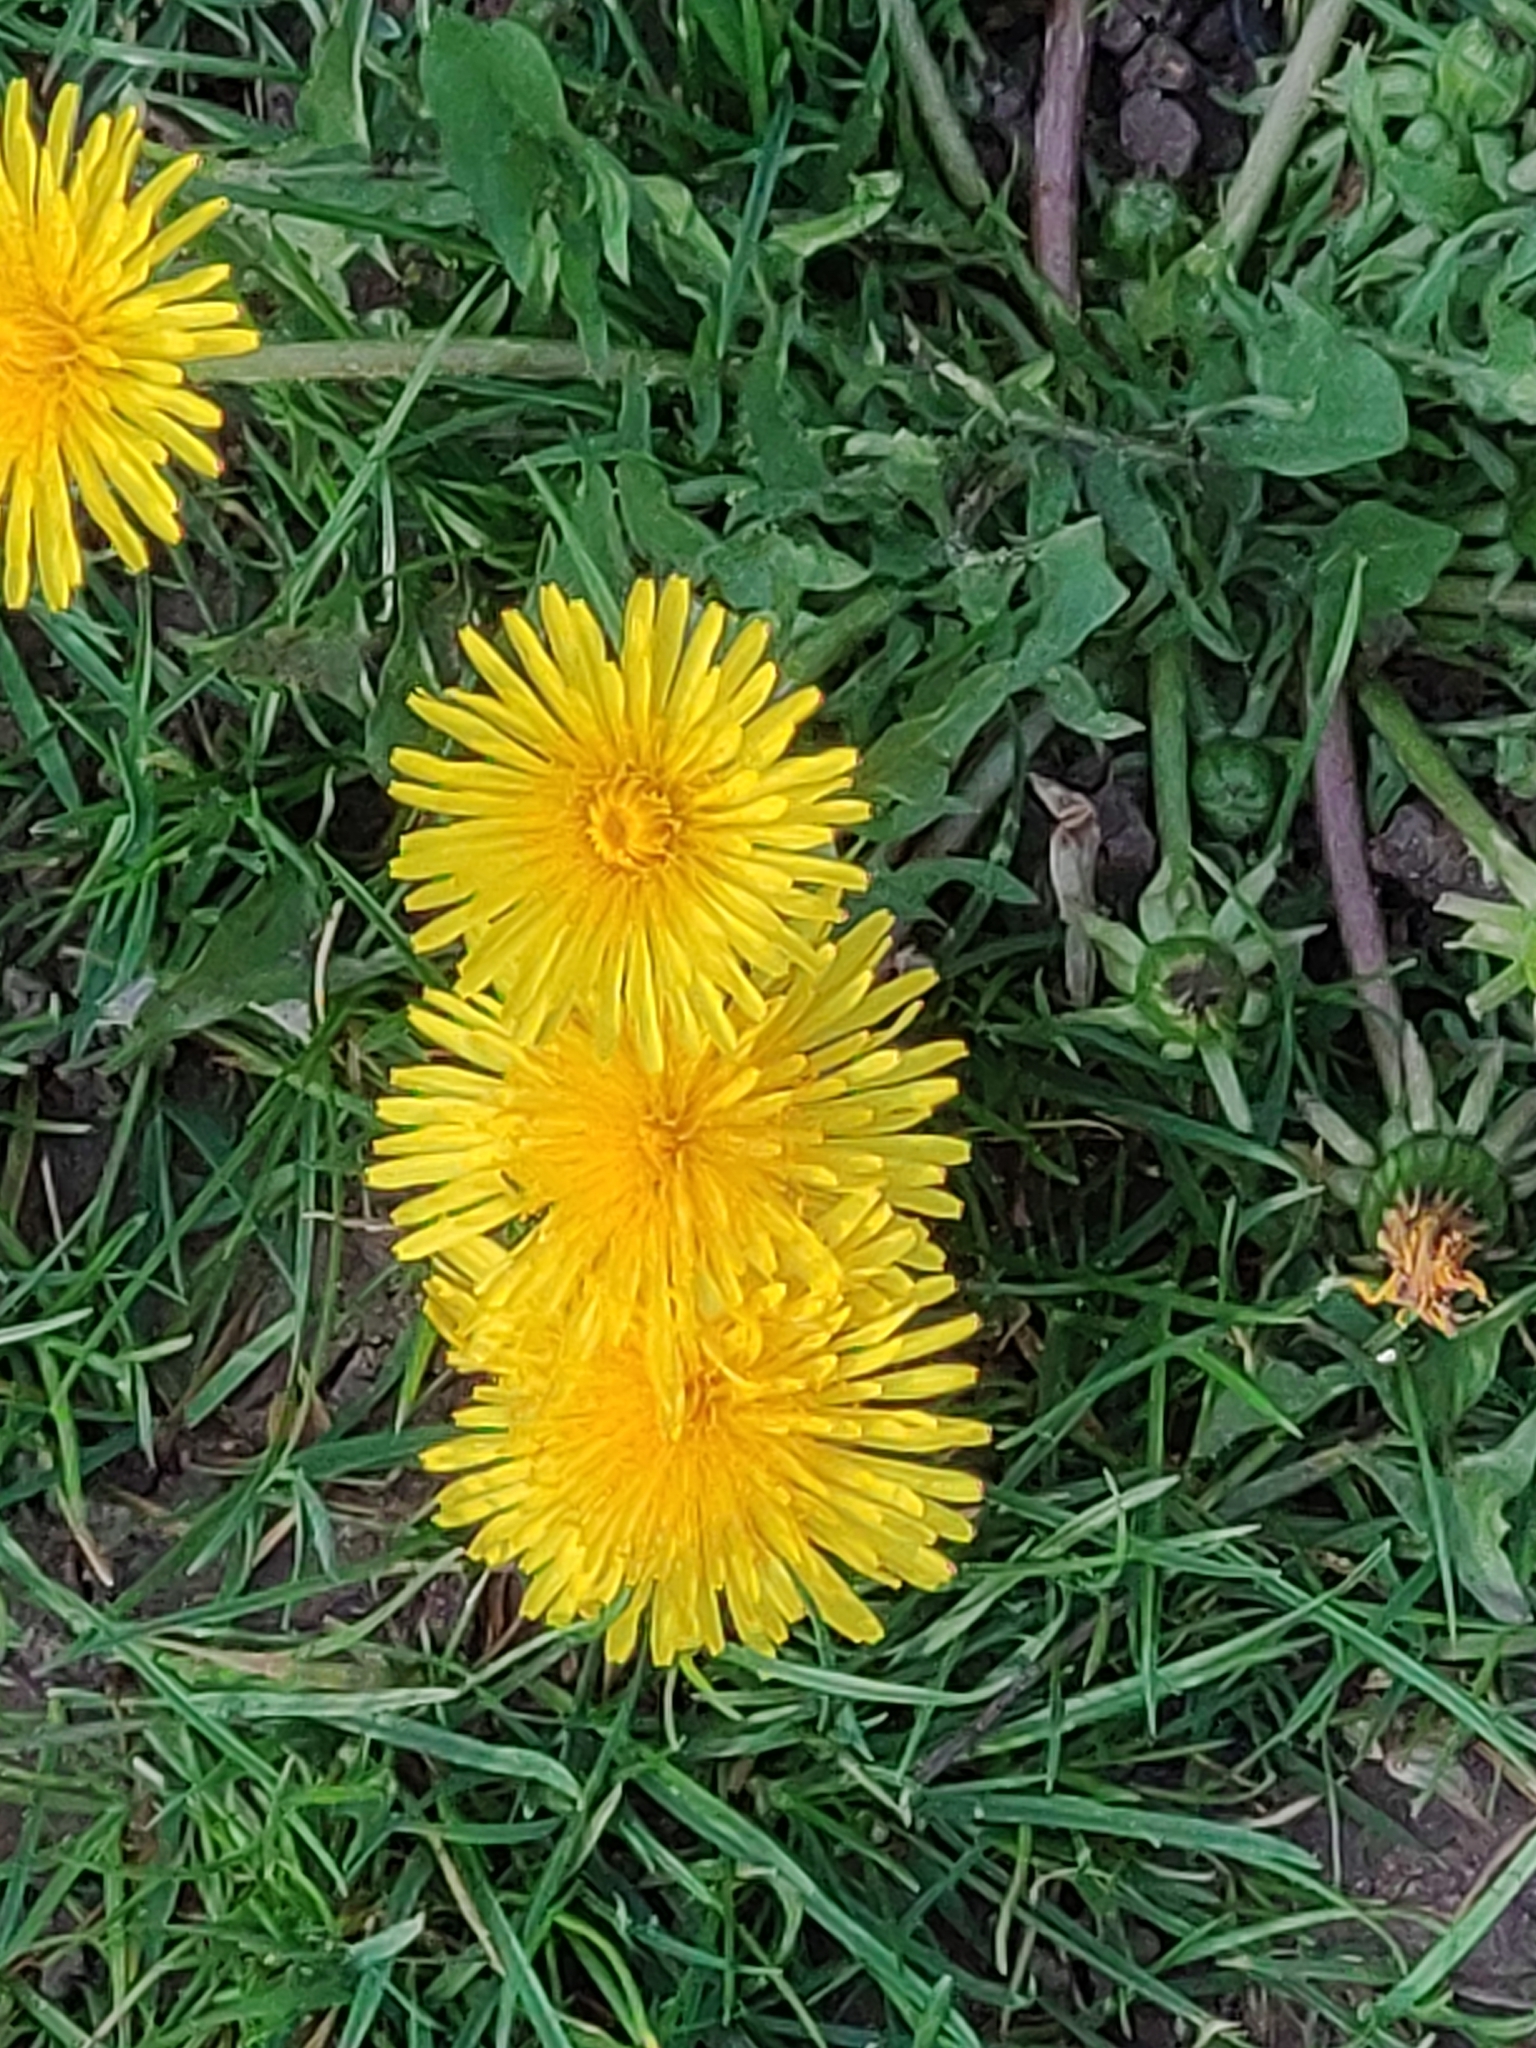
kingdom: Plantae
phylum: Tracheophyta
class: Magnoliopsida
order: Asterales
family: Asteraceae
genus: Taraxacum
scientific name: Taraxacum officinale
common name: Common dandelion
